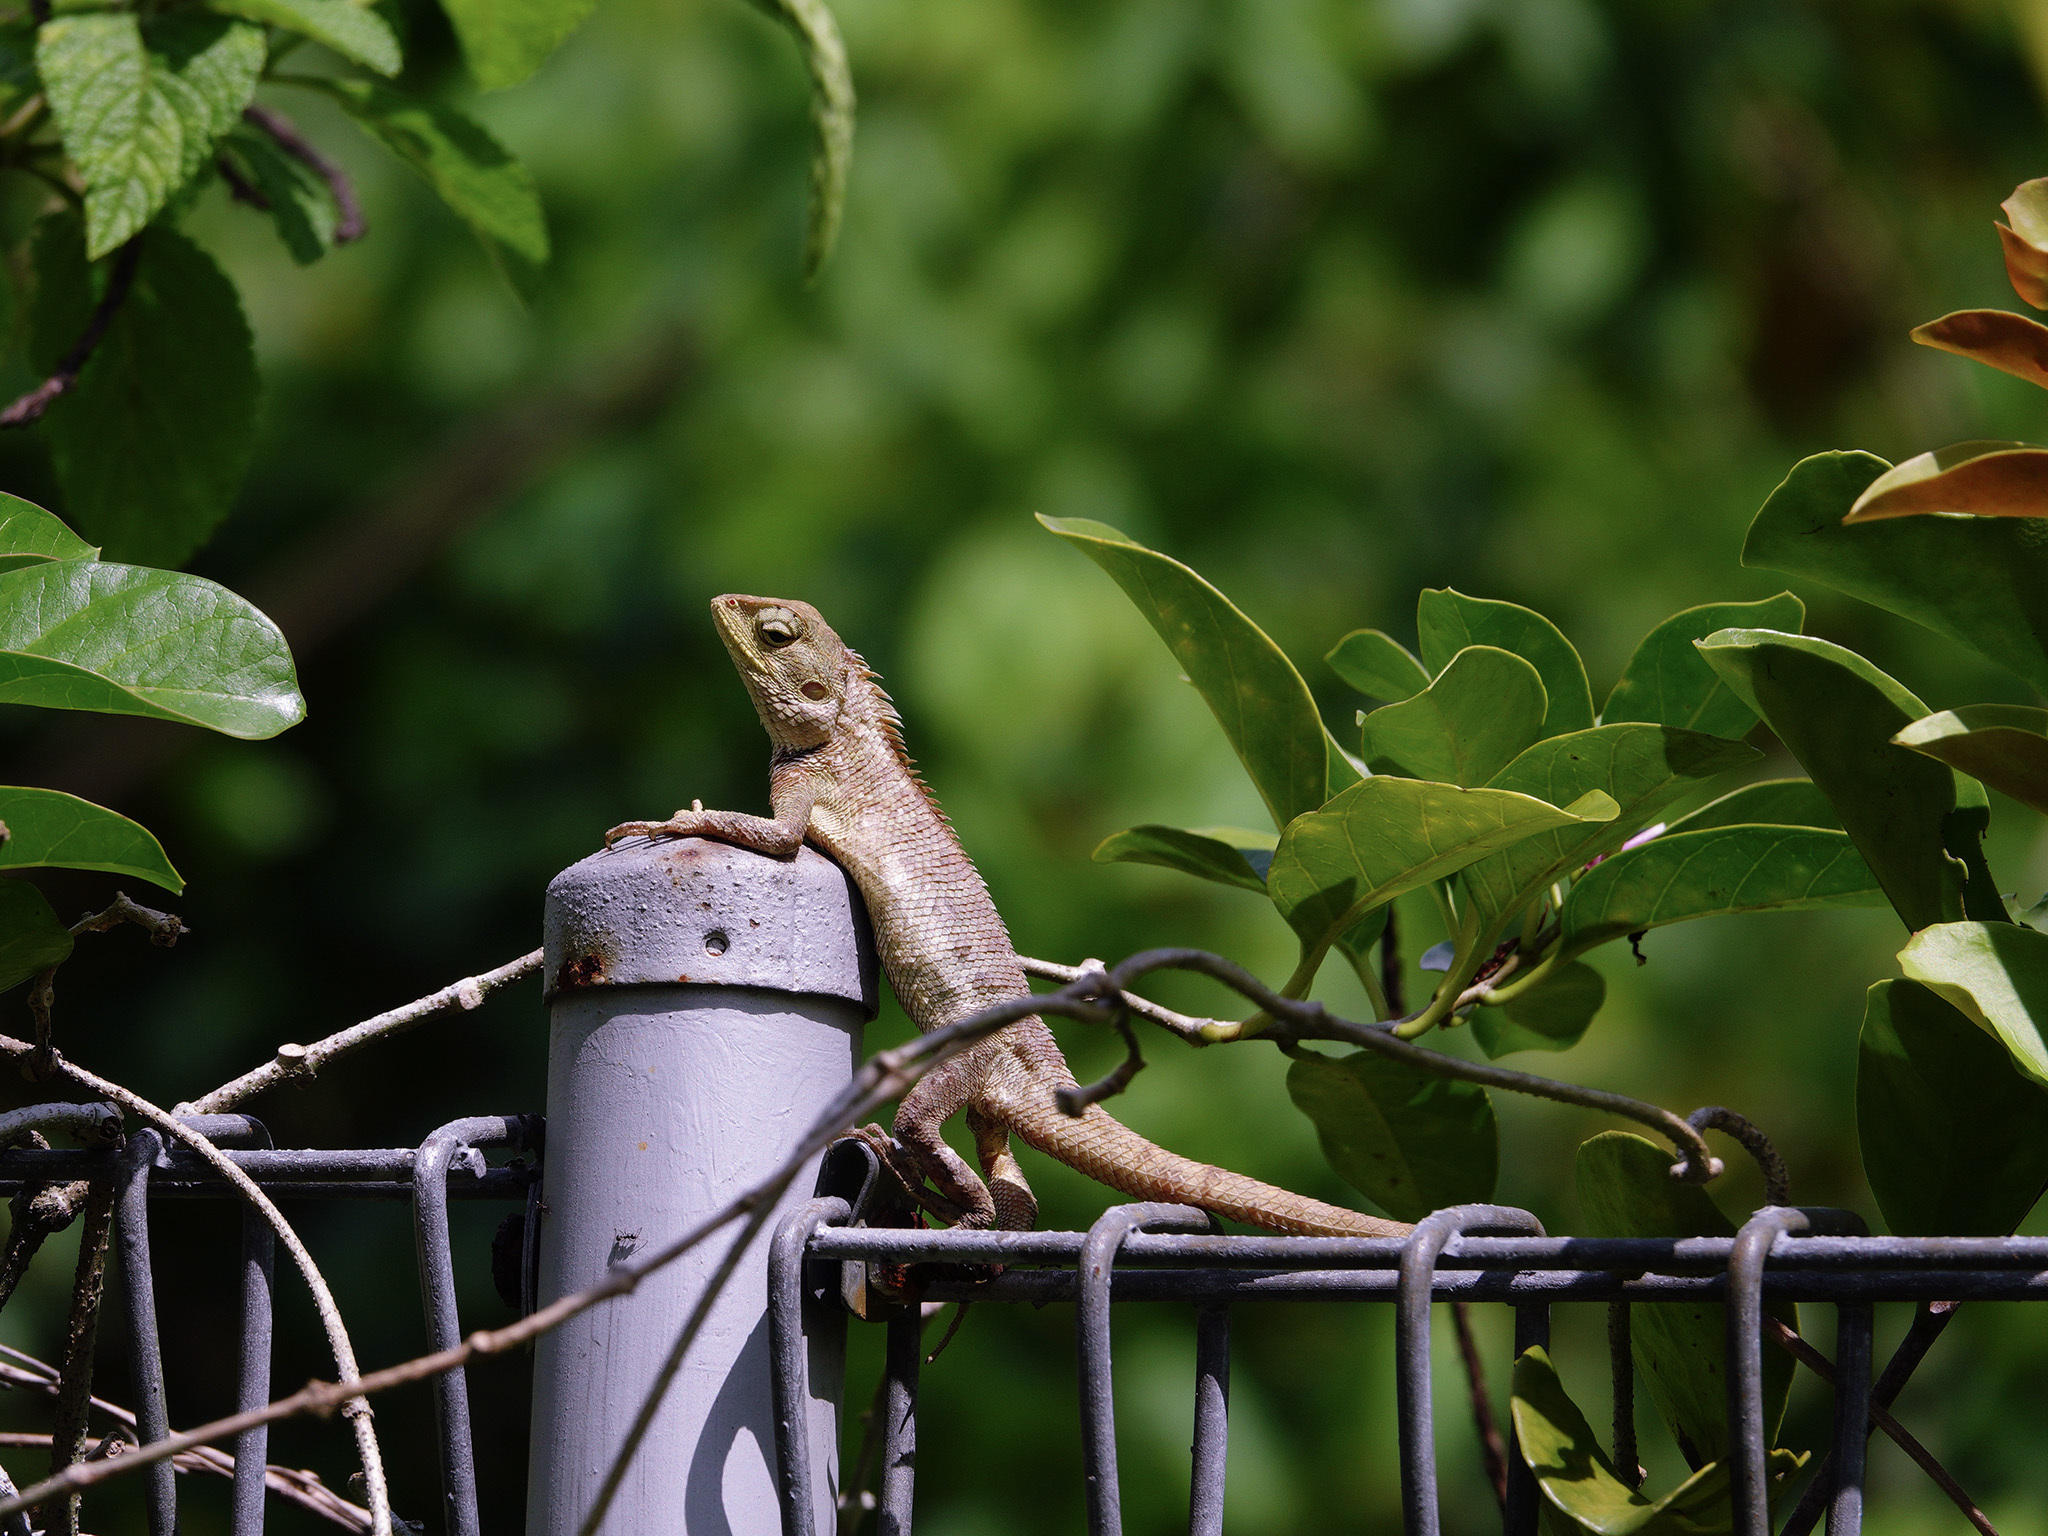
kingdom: Animalia
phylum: Chordata
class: Squamata
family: Agamidae
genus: Calotes
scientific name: Calotes versicolor
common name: Oriental garden lizard
